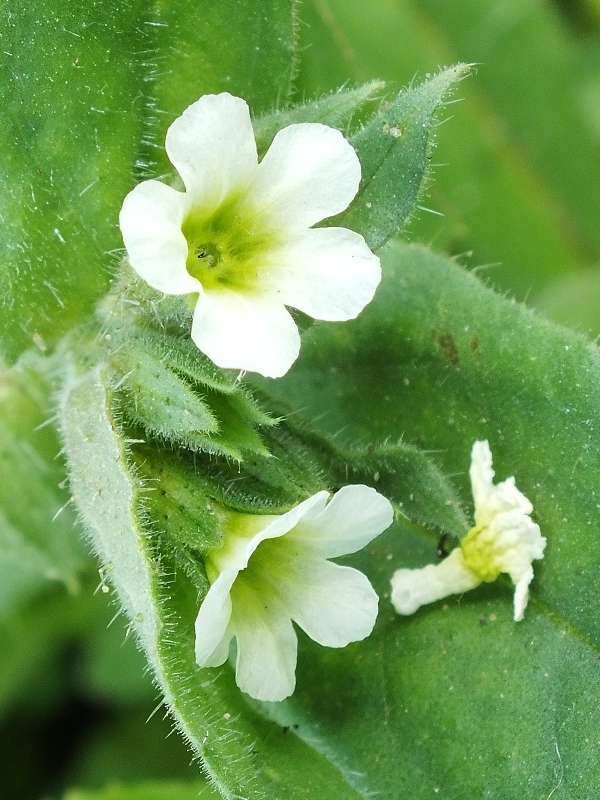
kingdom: Plantae
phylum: Tracheophyta
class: Magnoliopsida
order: Boraginales
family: Boraginaceae
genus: Nonea
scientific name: Nonea lutea
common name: Yellow nonea
